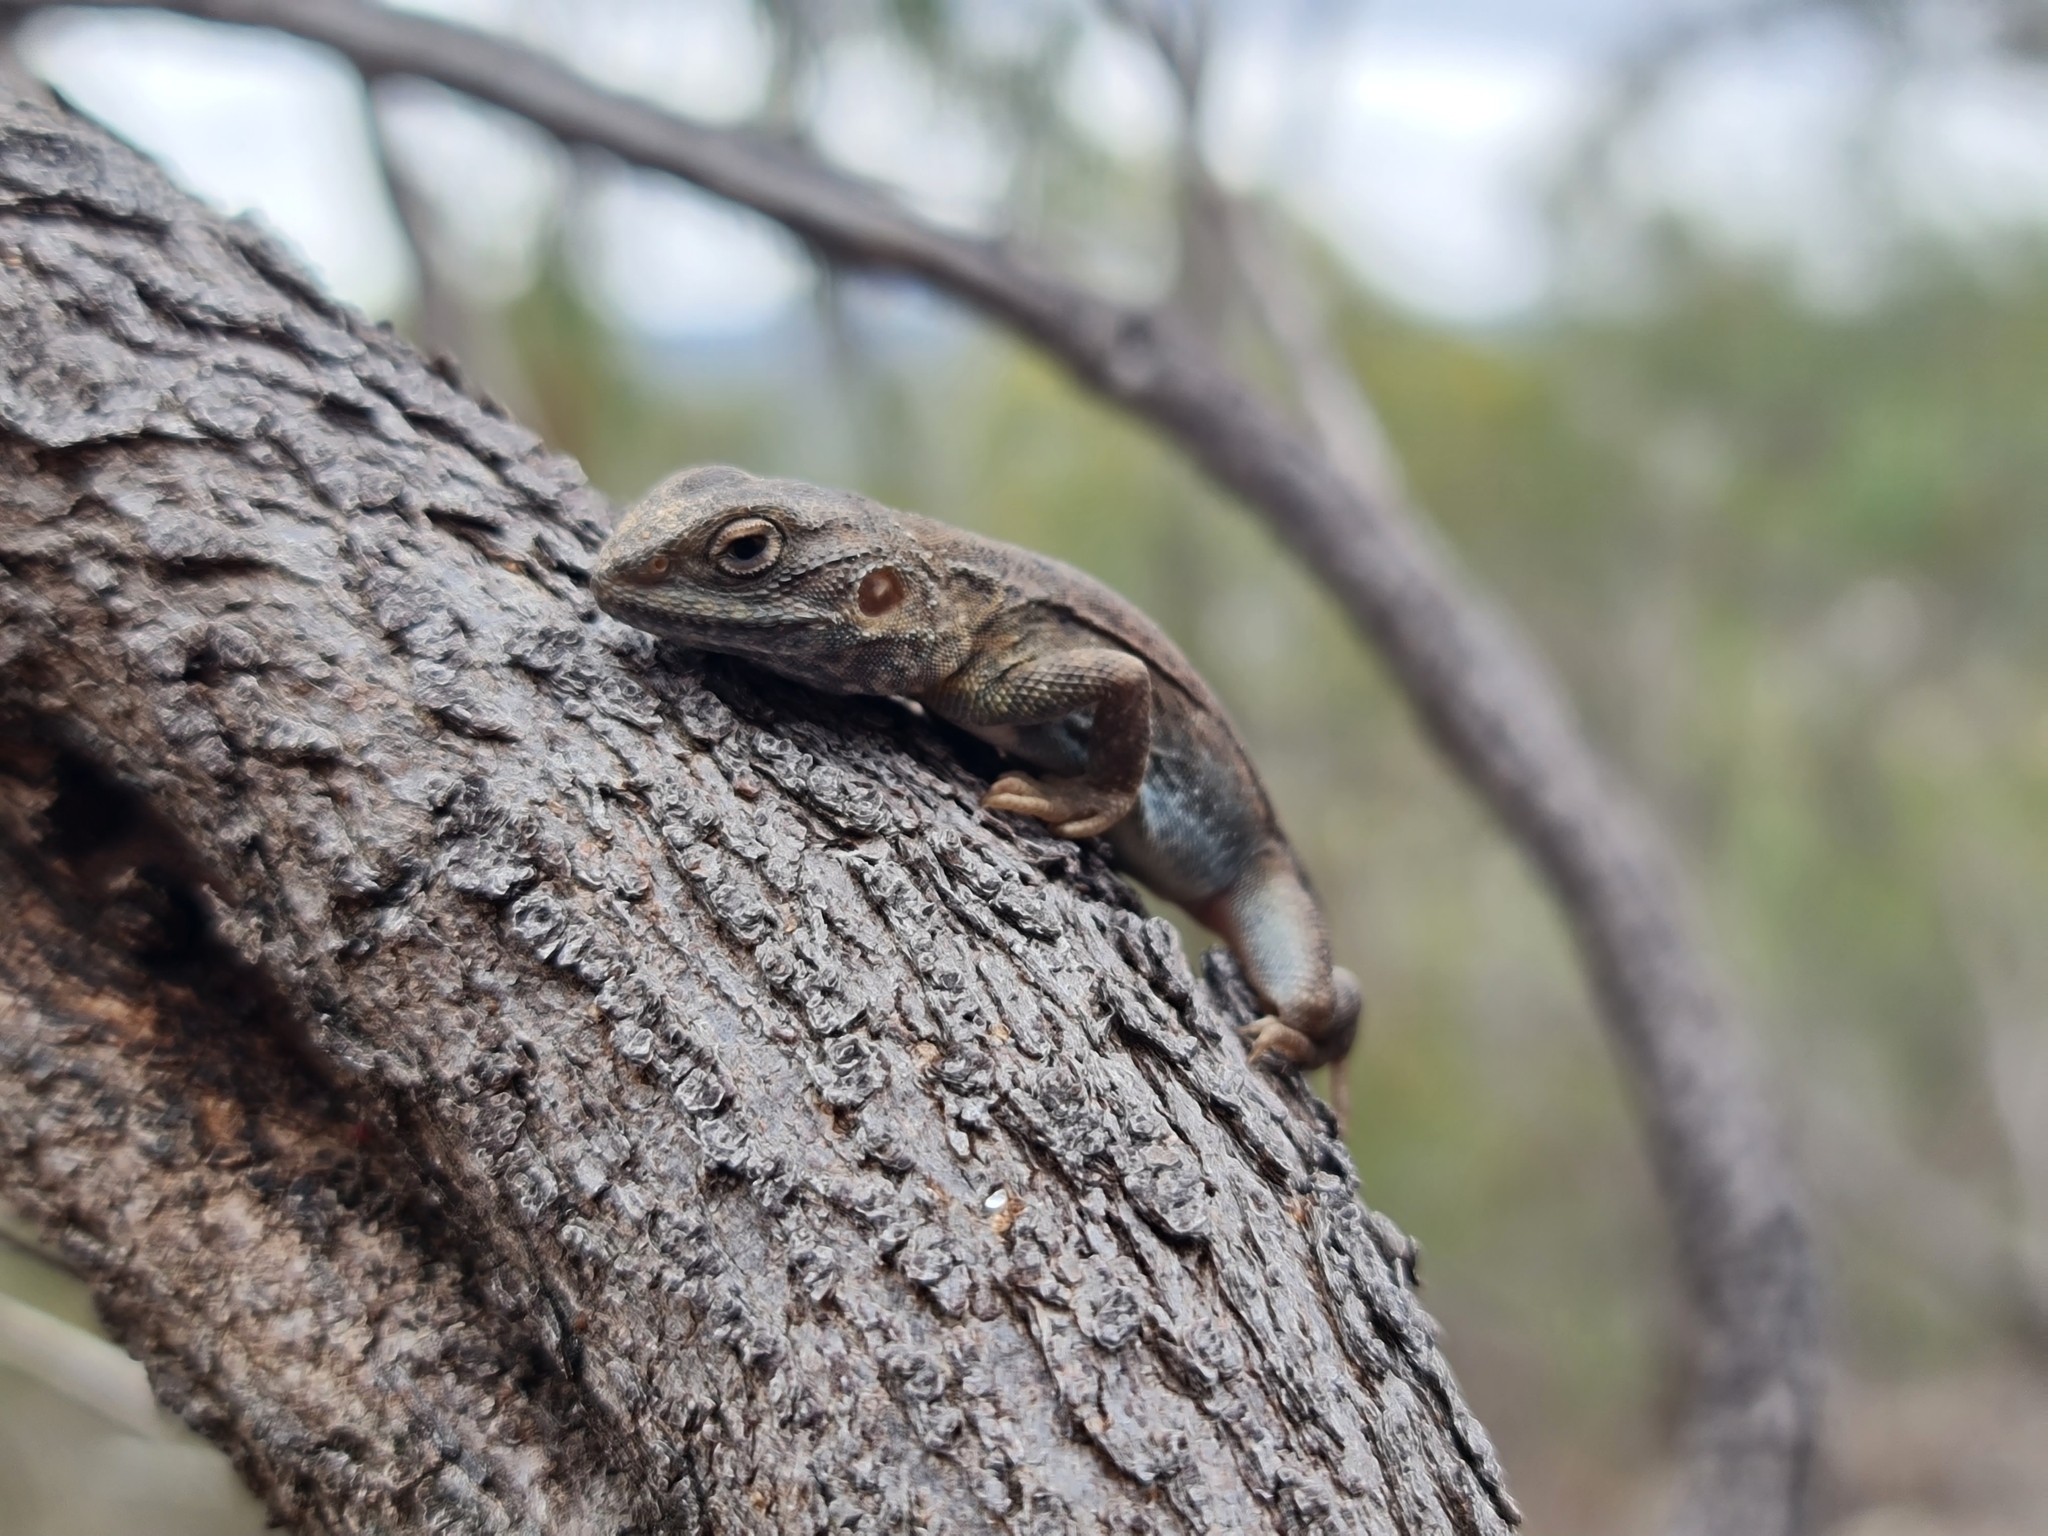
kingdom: Animalia
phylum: Chordata
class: Squamata
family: Agamidae
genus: Ctenophorus
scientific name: Ctenophorus decresii
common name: Tawny dragon
